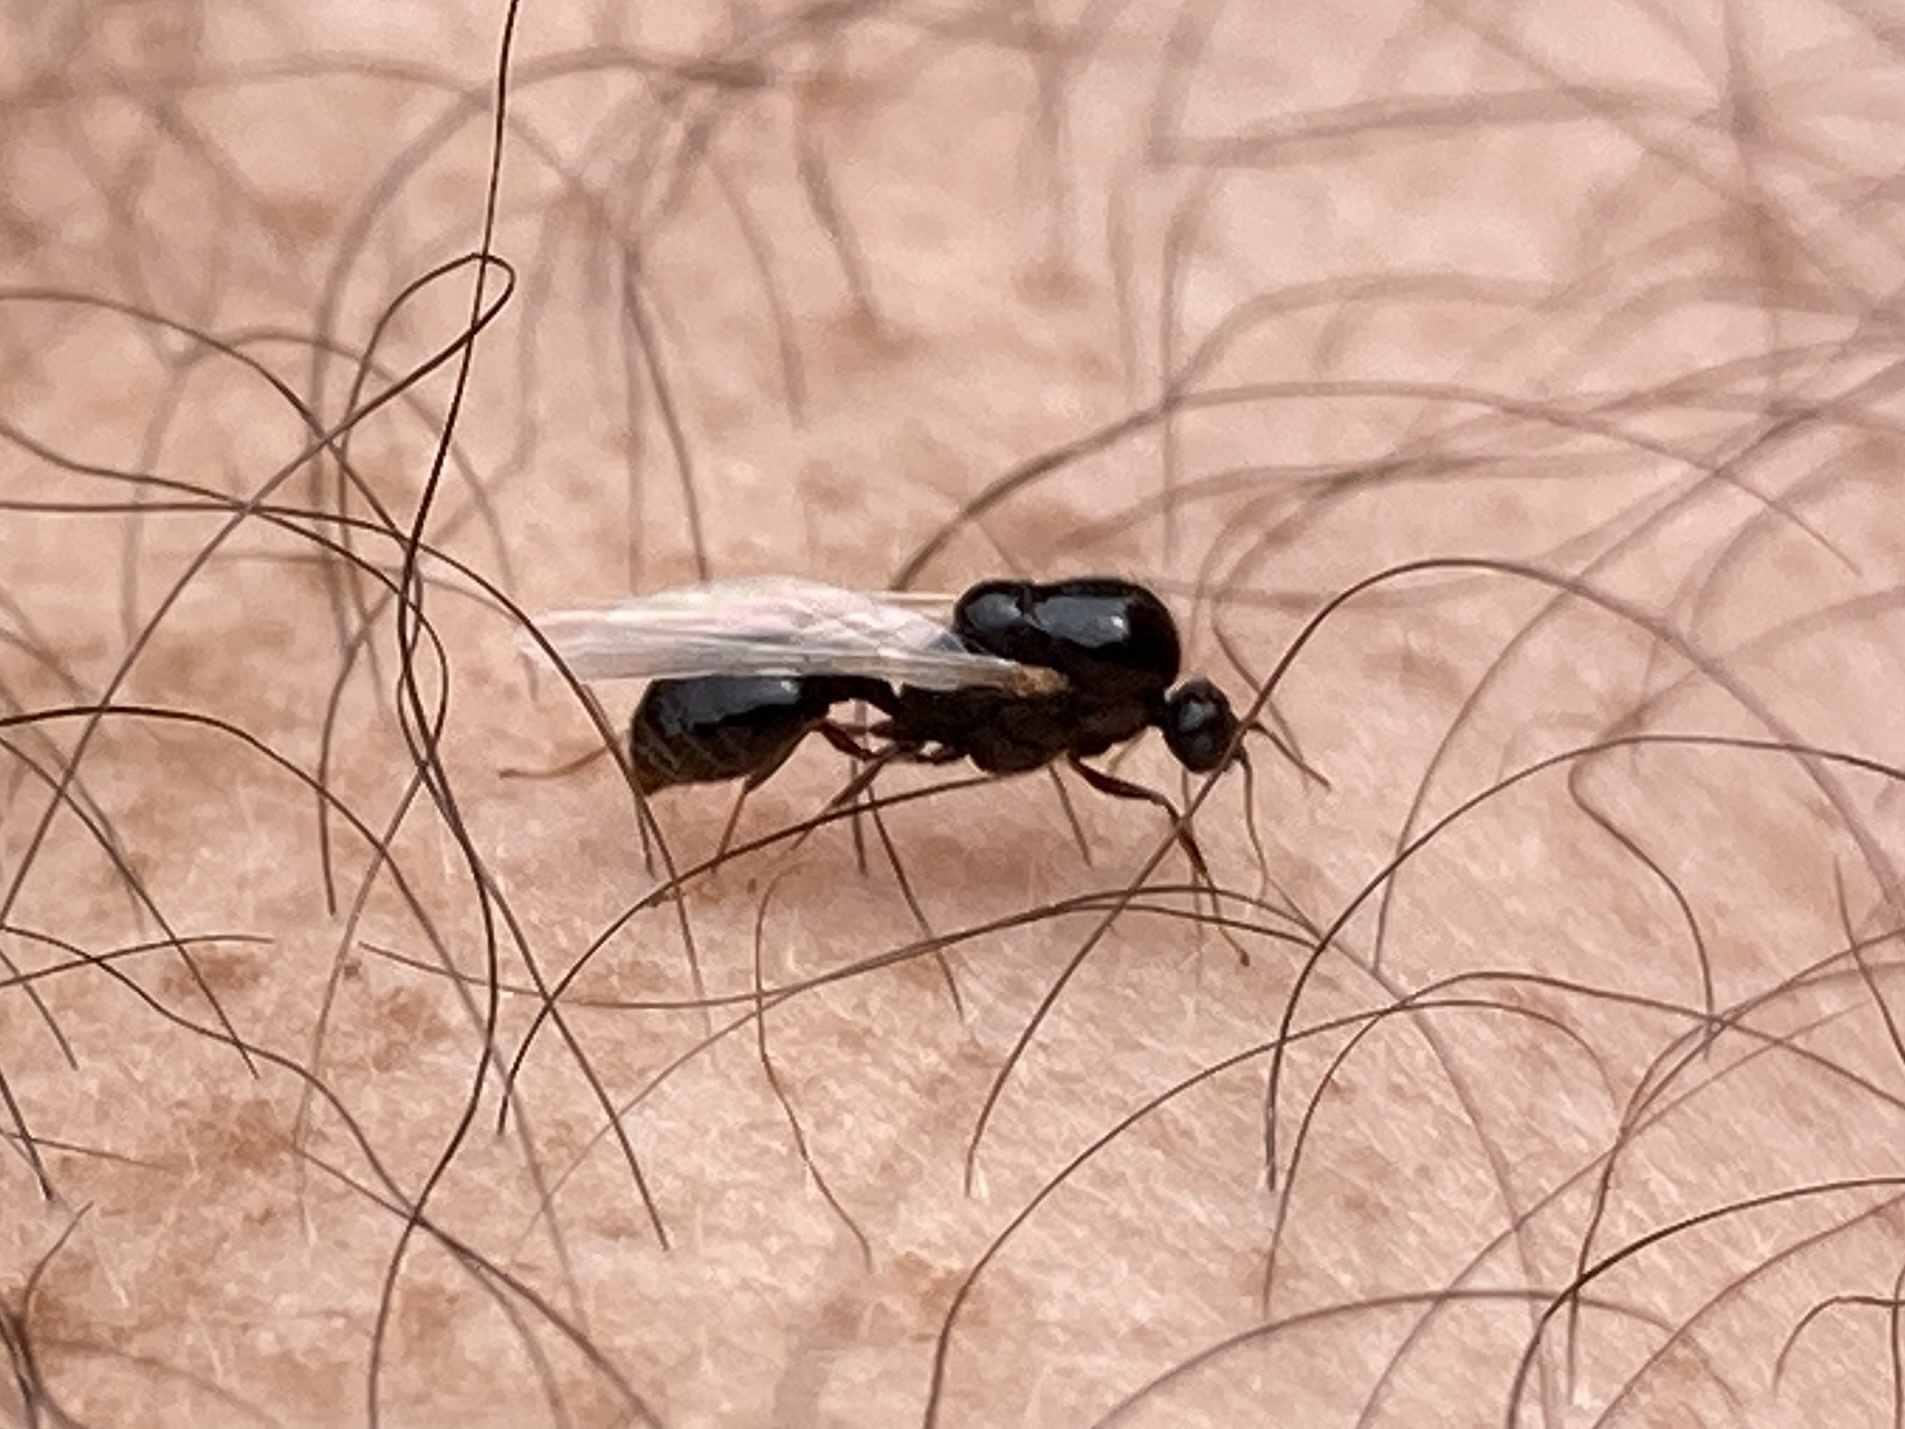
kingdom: Animalia
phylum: Arthropoda
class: Insecta
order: Hymenoptera
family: Formicidae
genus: Solenopsis
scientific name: Solenopsis invicta
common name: Red imported fire ant
